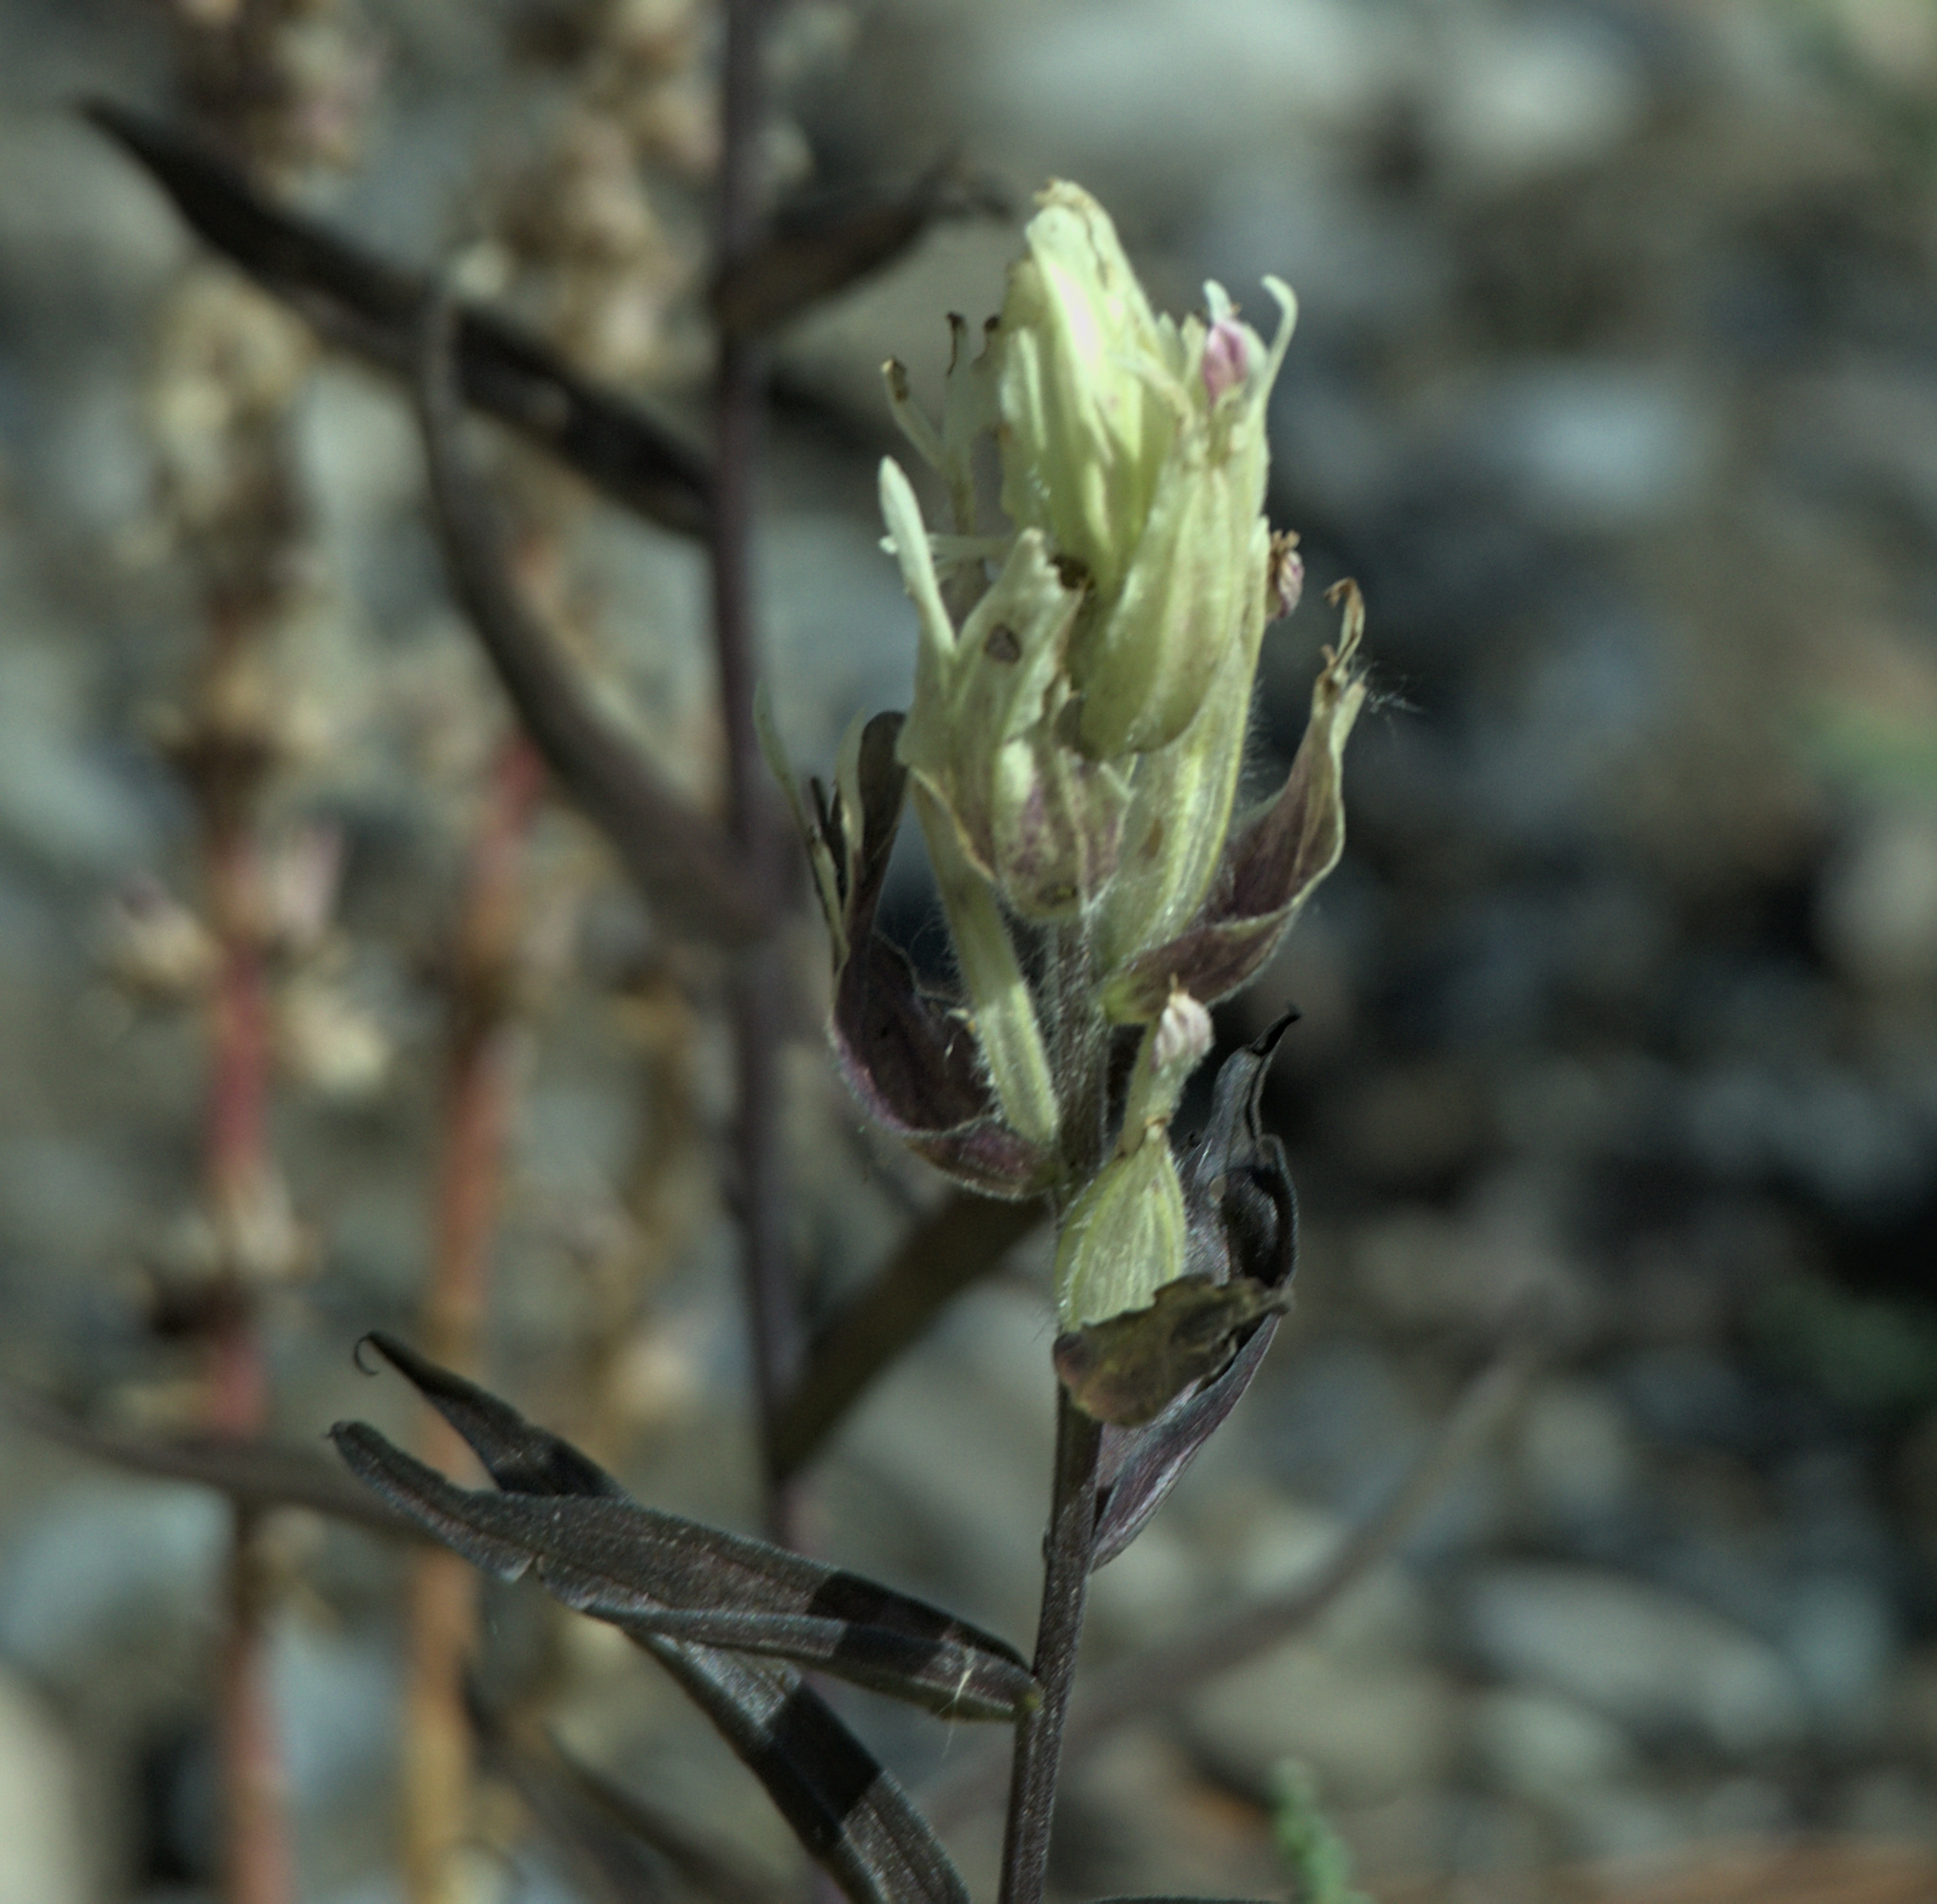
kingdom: Plantae
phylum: Tracheophyta
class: Magnoliopsida
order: Lamiales
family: Orobanchaceae
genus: Castilleja
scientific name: Castilleja pallida
